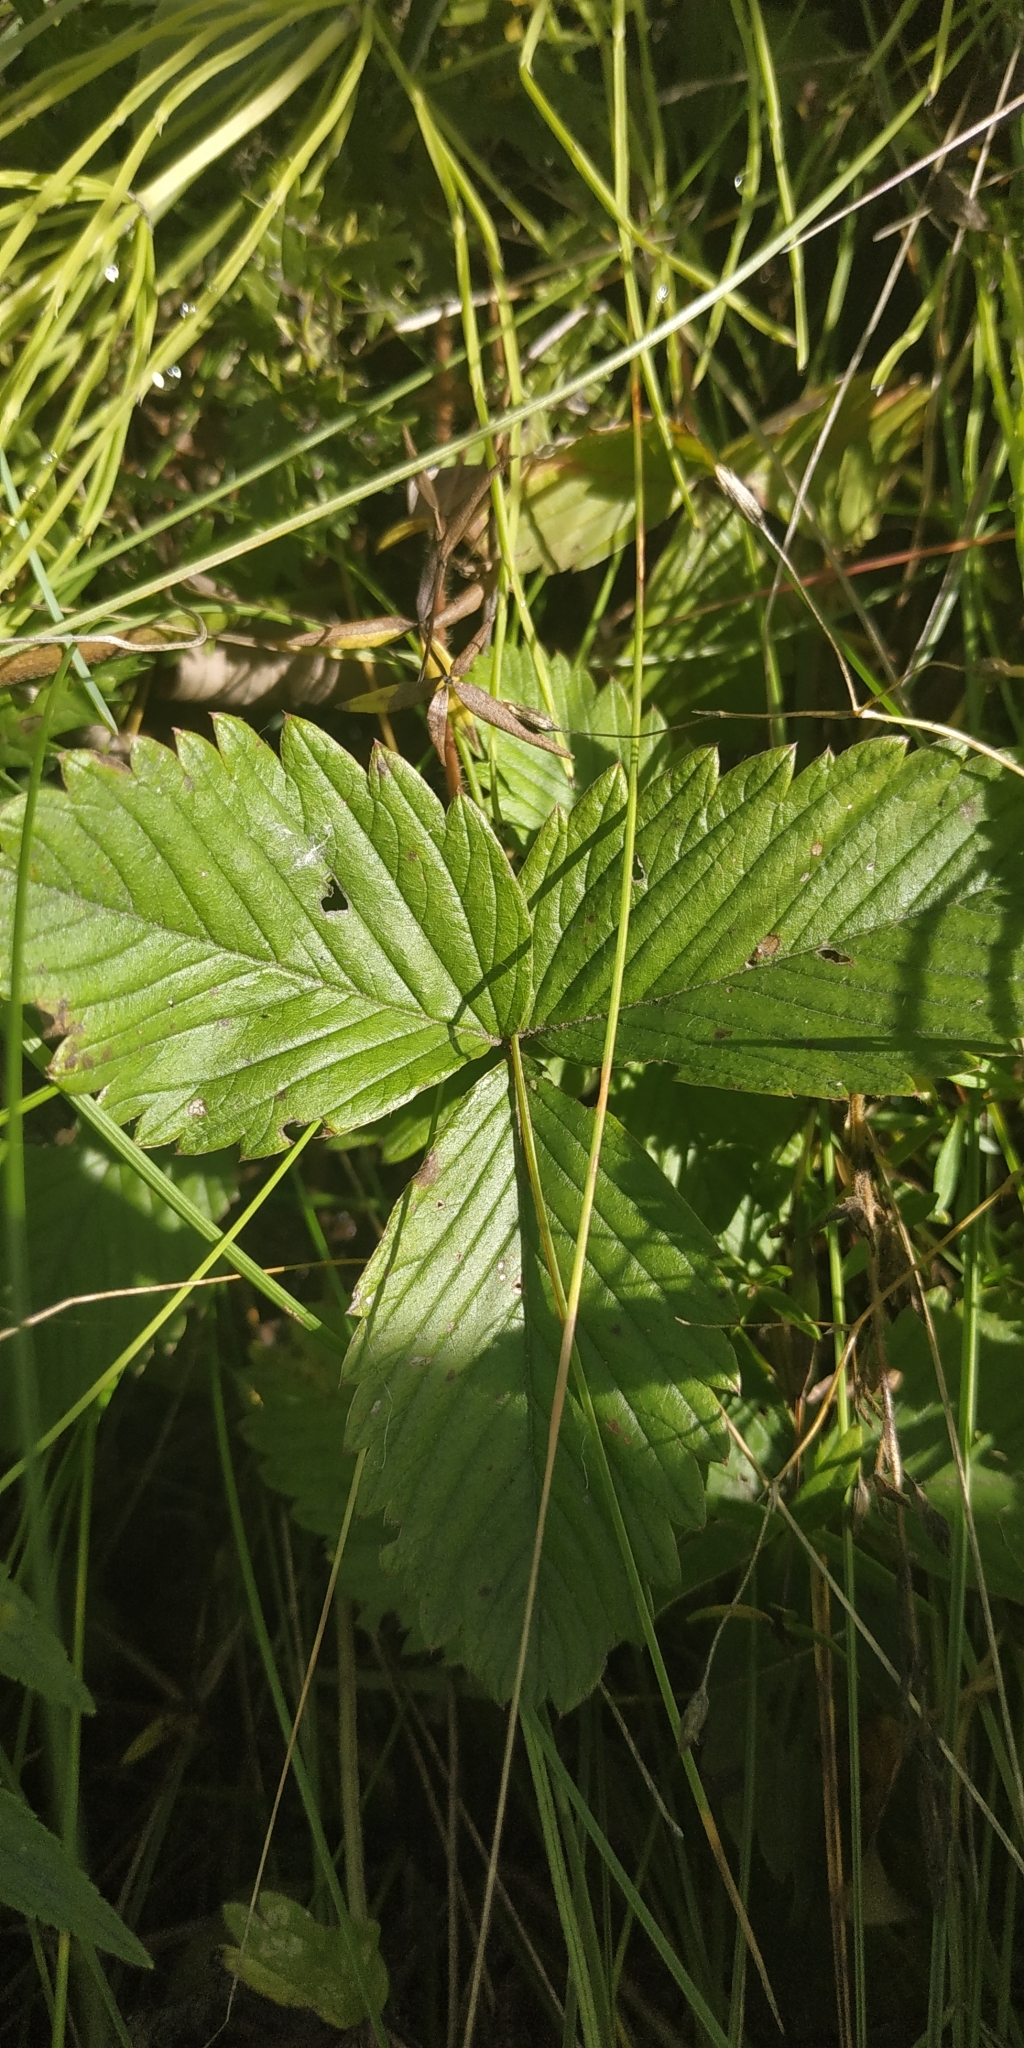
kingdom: Plantae
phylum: Tracheophyta
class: Magnoliopsida
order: Rosales
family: Rosaceae
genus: Fragaria
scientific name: Fragaria viridis
